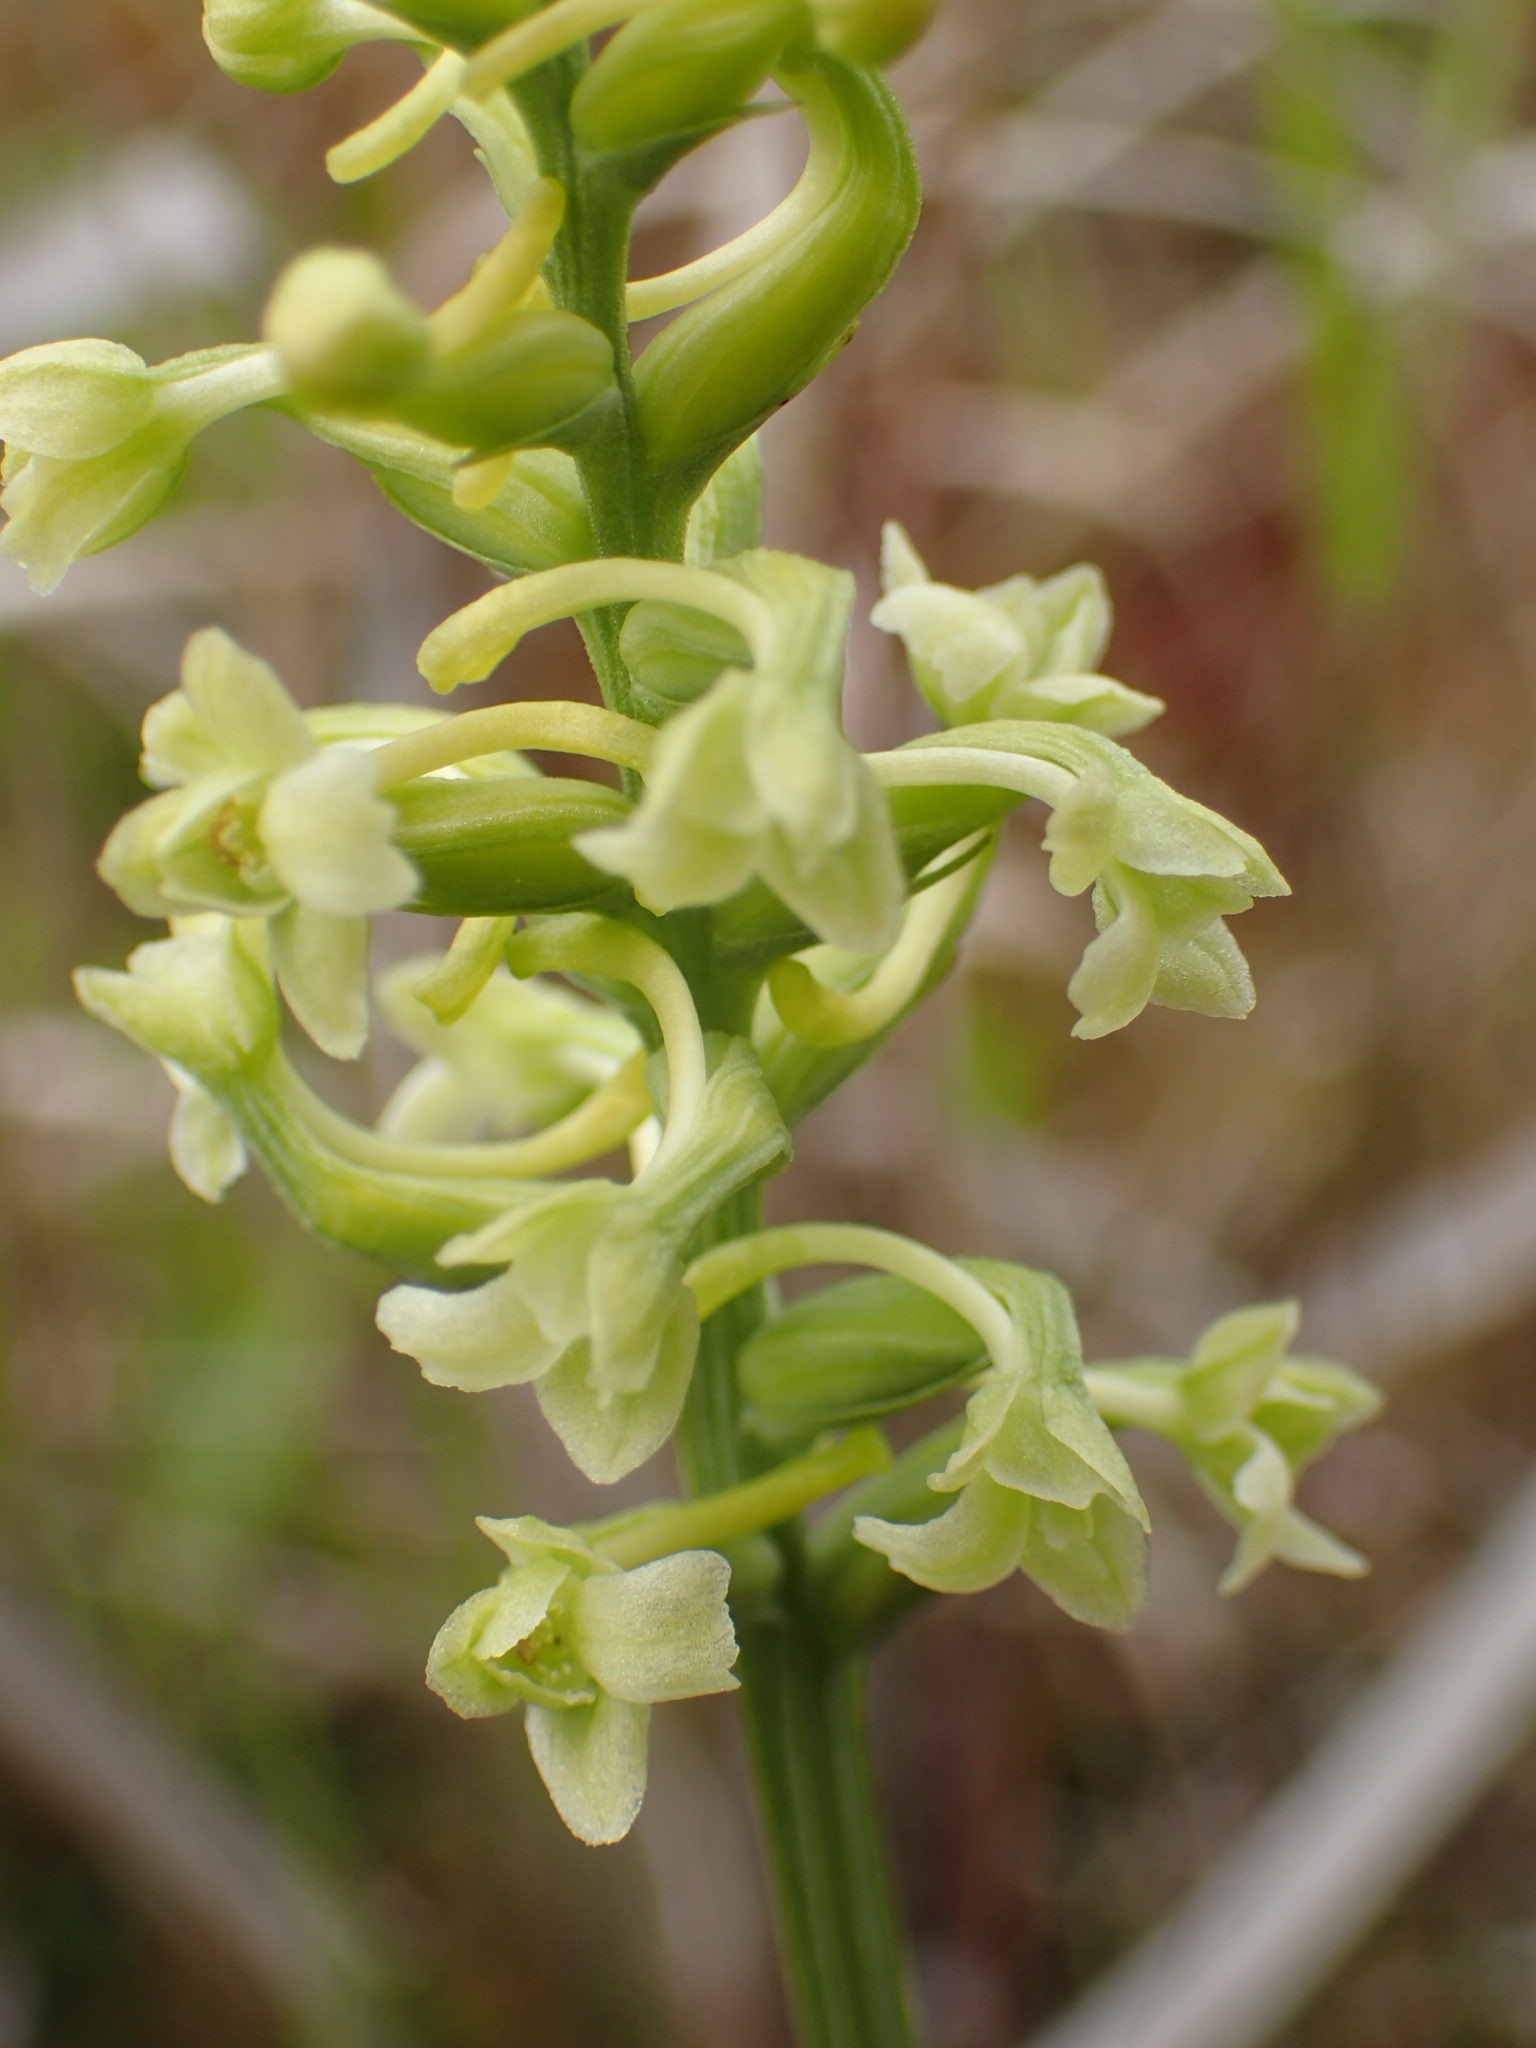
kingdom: Plantae
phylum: Tracheophyta
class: Liliopsida
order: Asparagales
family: Orchidaceae
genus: Platanthera
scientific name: Platanthera clavellata
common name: Club-spur orchid
